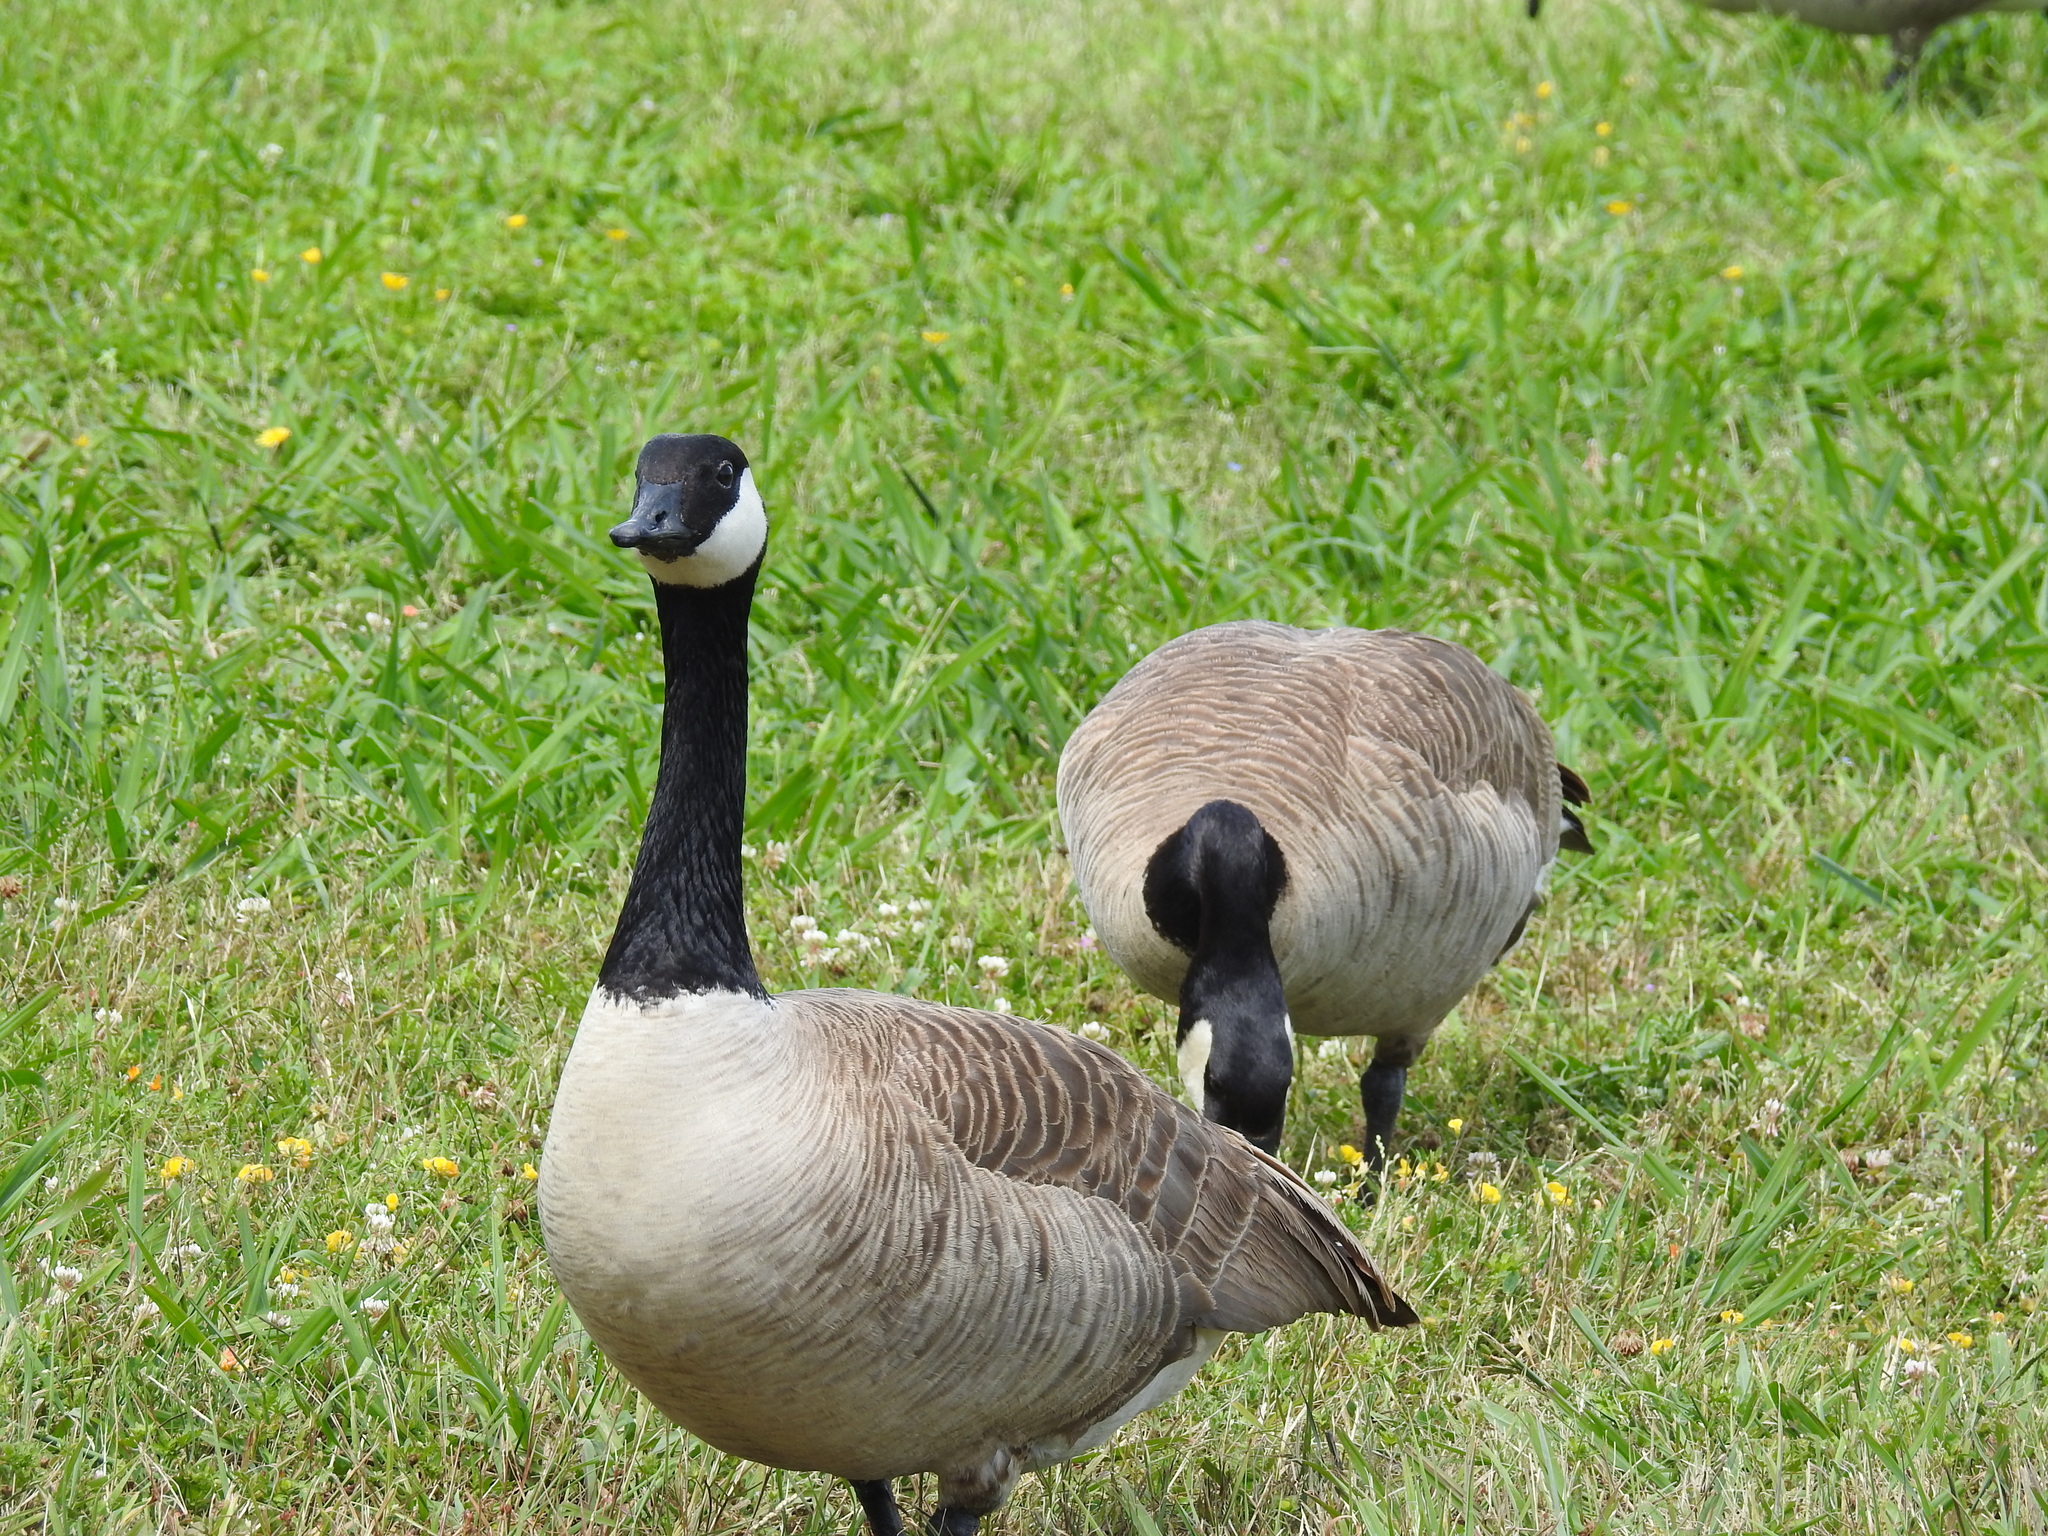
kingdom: Animalia
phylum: Chordata
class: Aves
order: Anseriformes
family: Anatidae
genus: Branta
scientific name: Branta canadensis
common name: Canada goose
